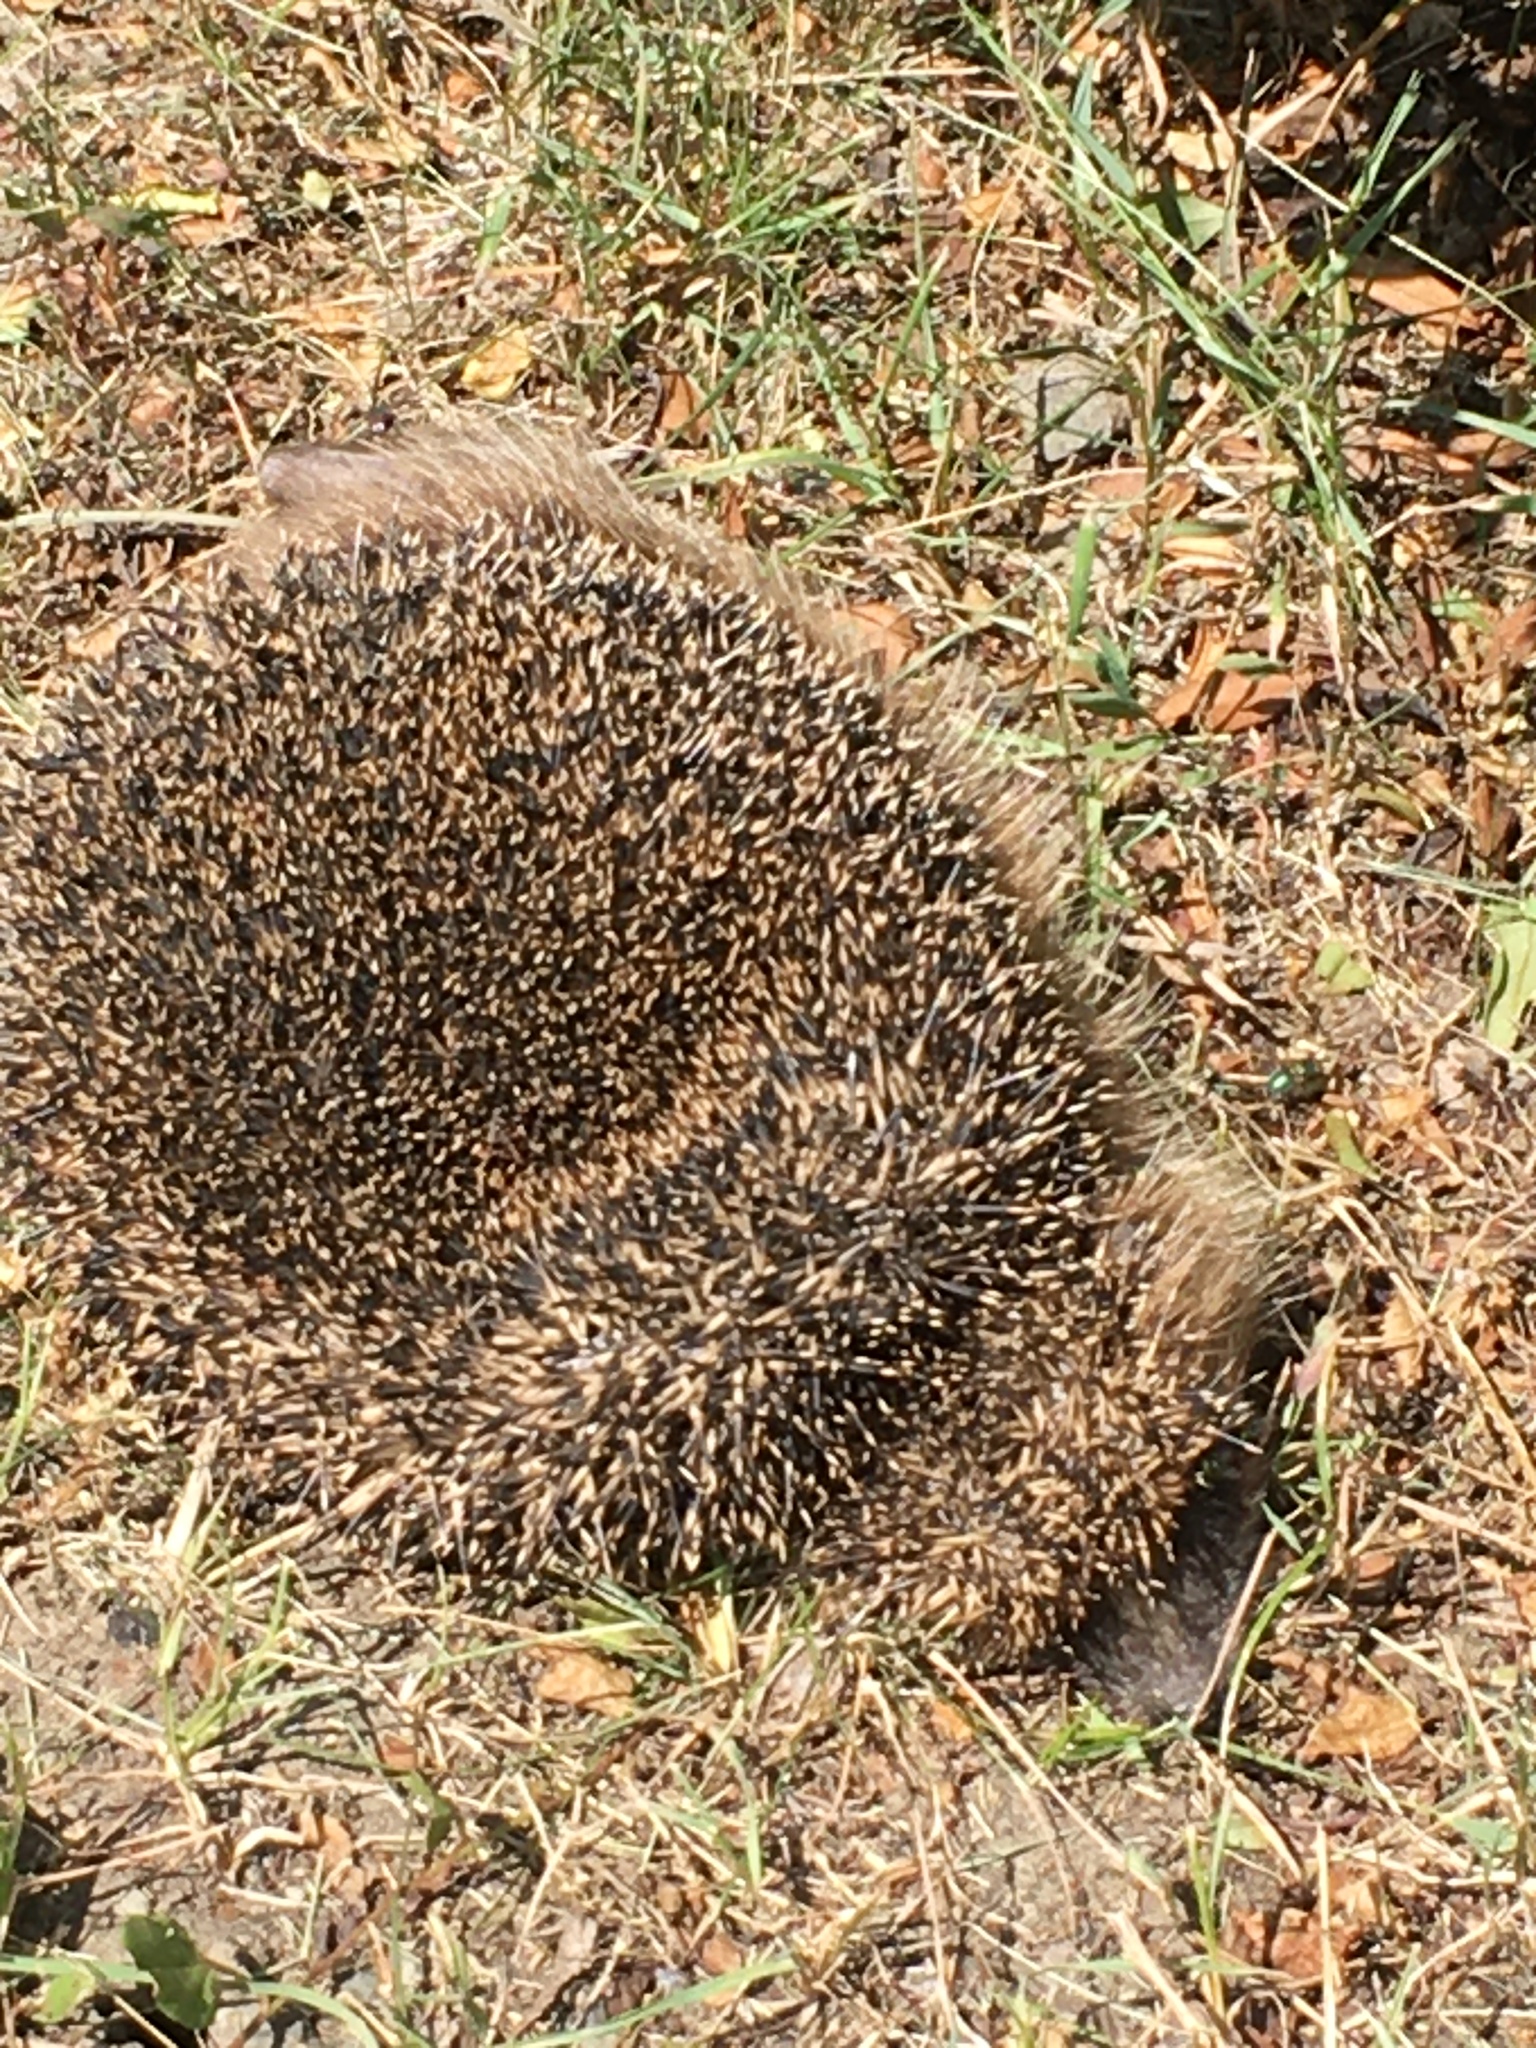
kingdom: Animalia
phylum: Chordata
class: Mammalia
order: Erinaceomorpha
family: Erinaceidae
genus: Erinaceus
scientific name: Erinaceus europaeus
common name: West european hedgehog
